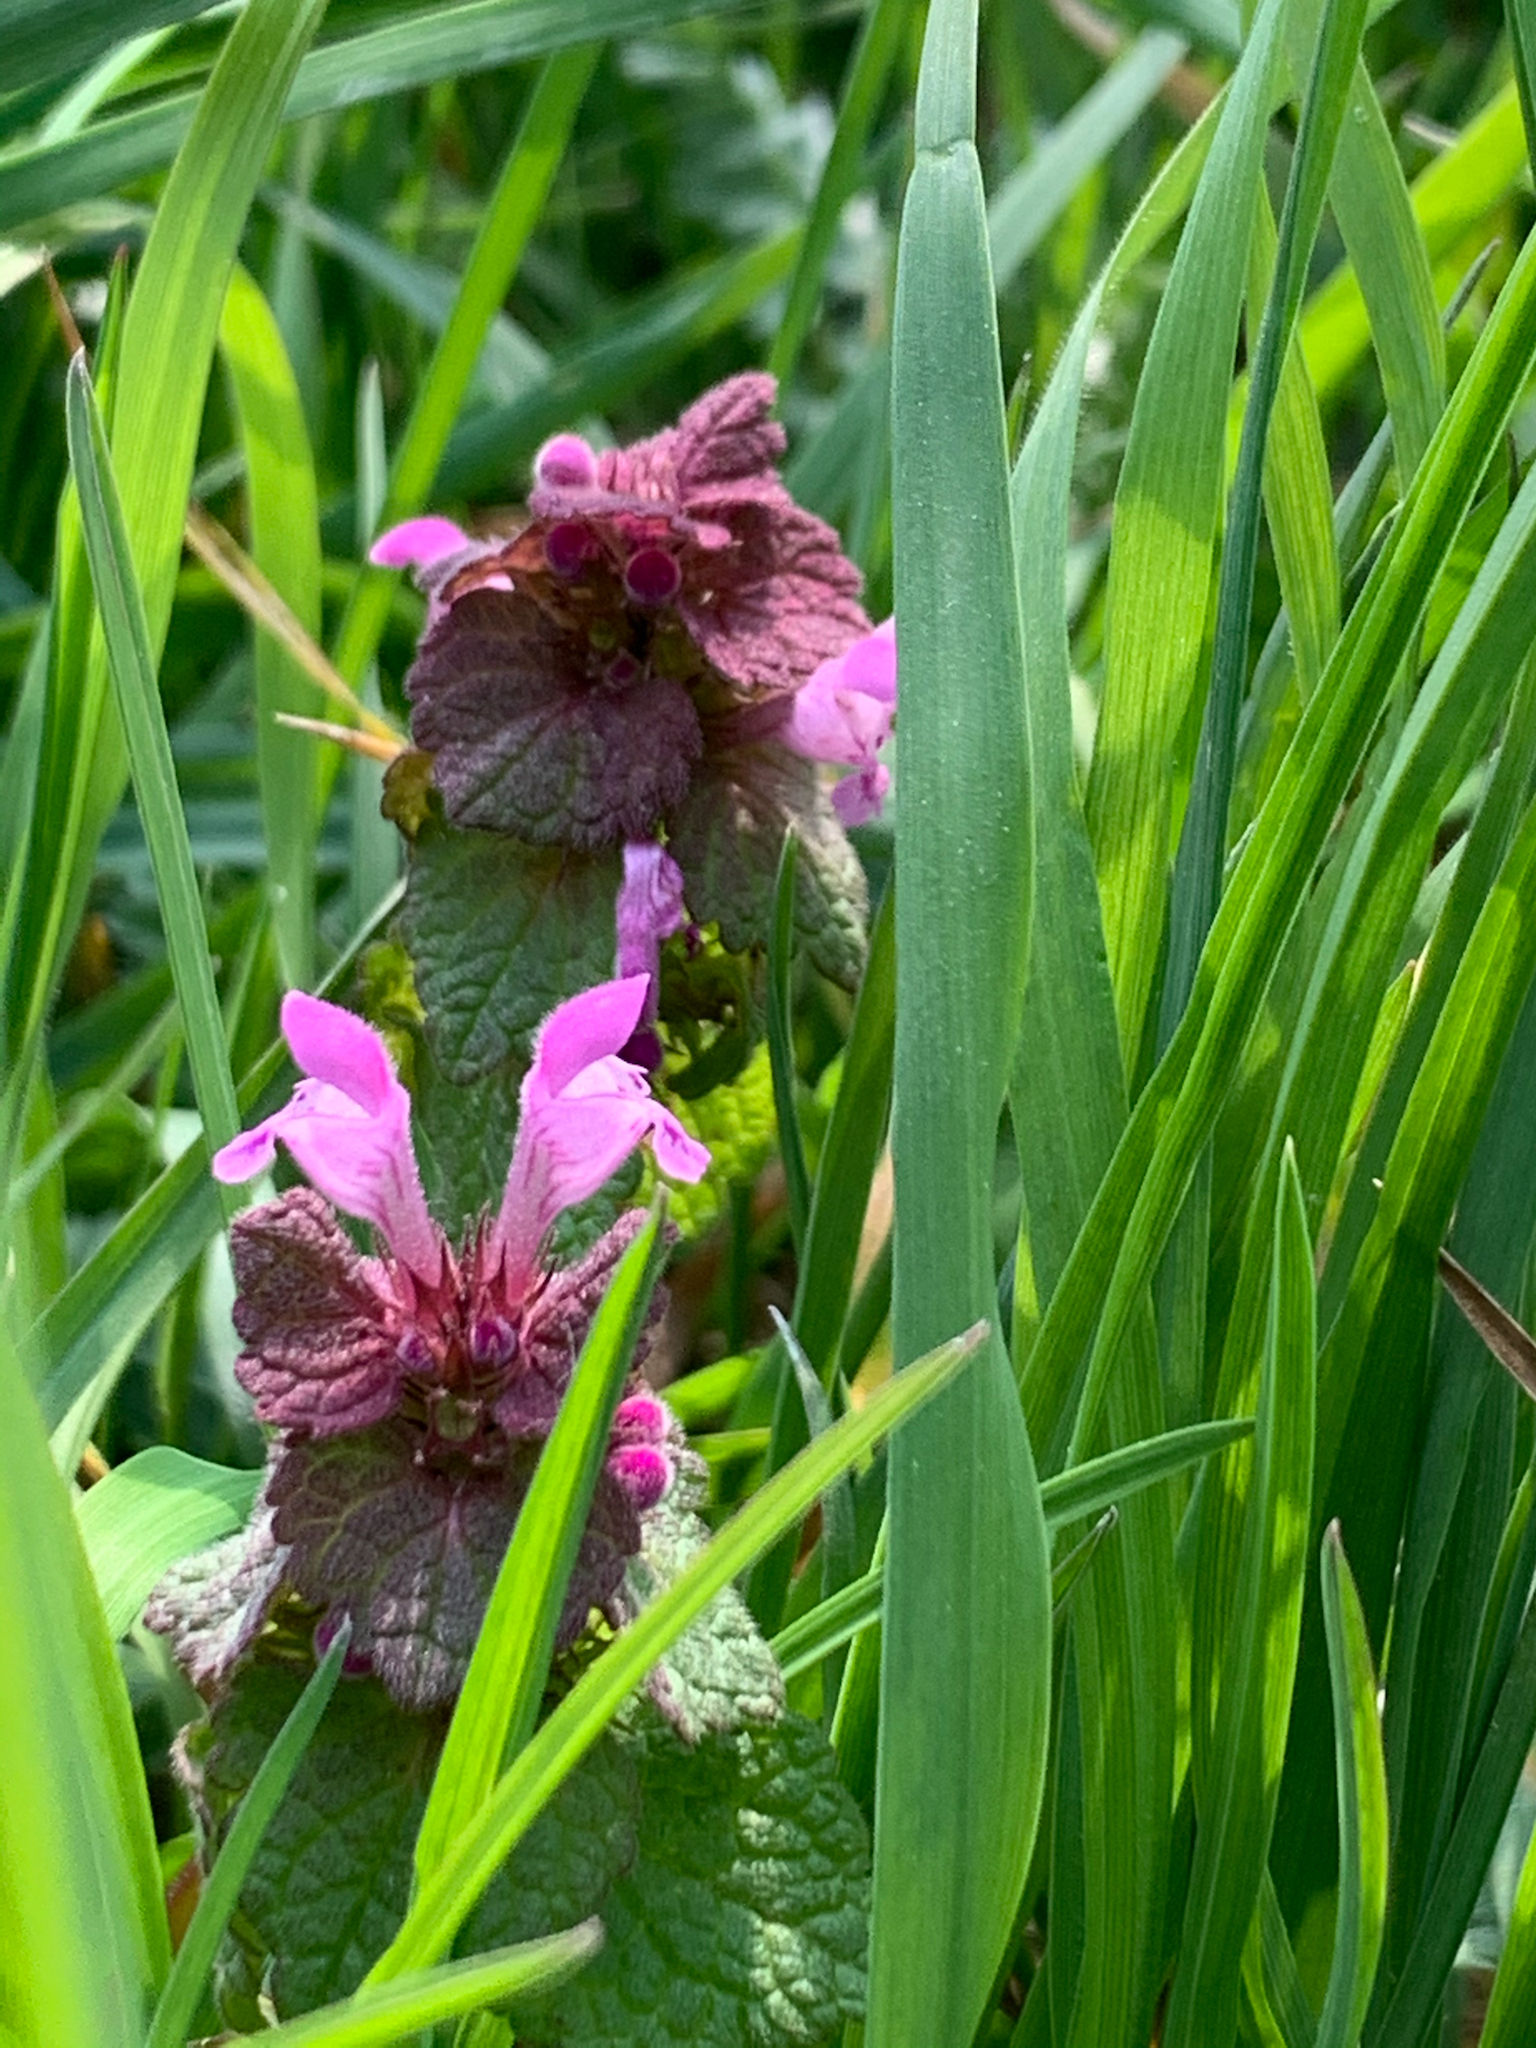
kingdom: Plantae
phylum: Tracheophyta
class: Magnoliopsida
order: Lamiales
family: Lamiaceae
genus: Lamium
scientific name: Lamium purpureum
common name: Red dead-nettle
